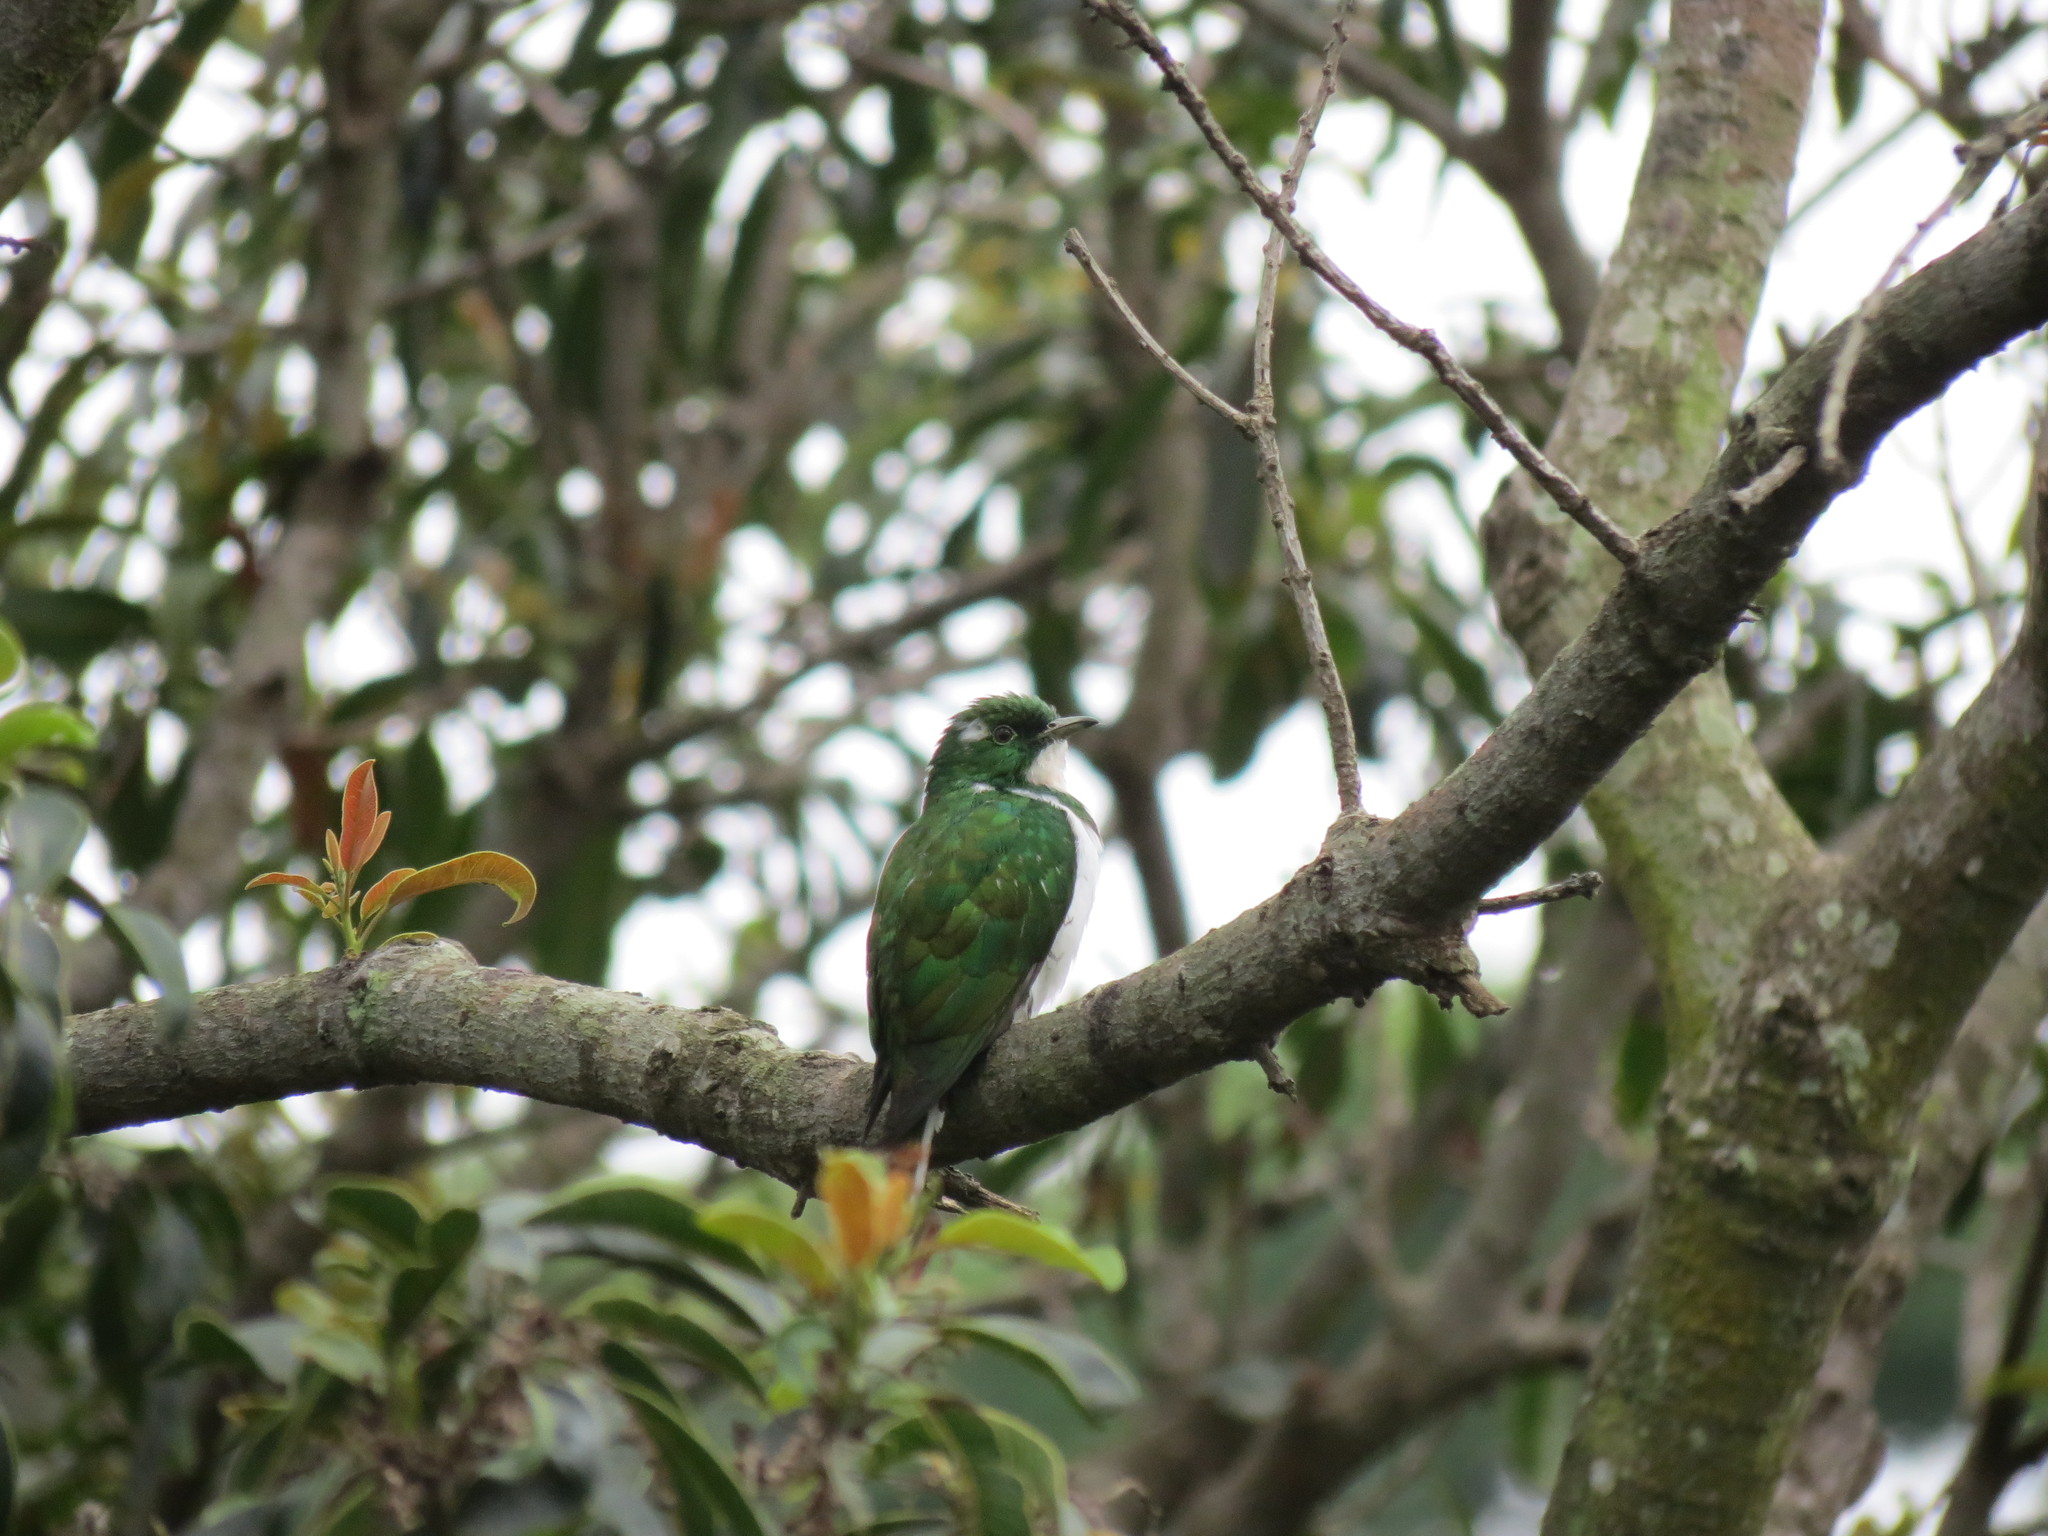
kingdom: Animalia
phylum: Chordata
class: Aves
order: Cuculiformes
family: Cuculidae
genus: Chrysococcyx
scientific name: Chrysococcyx klaas
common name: Klaas's cuckoo
